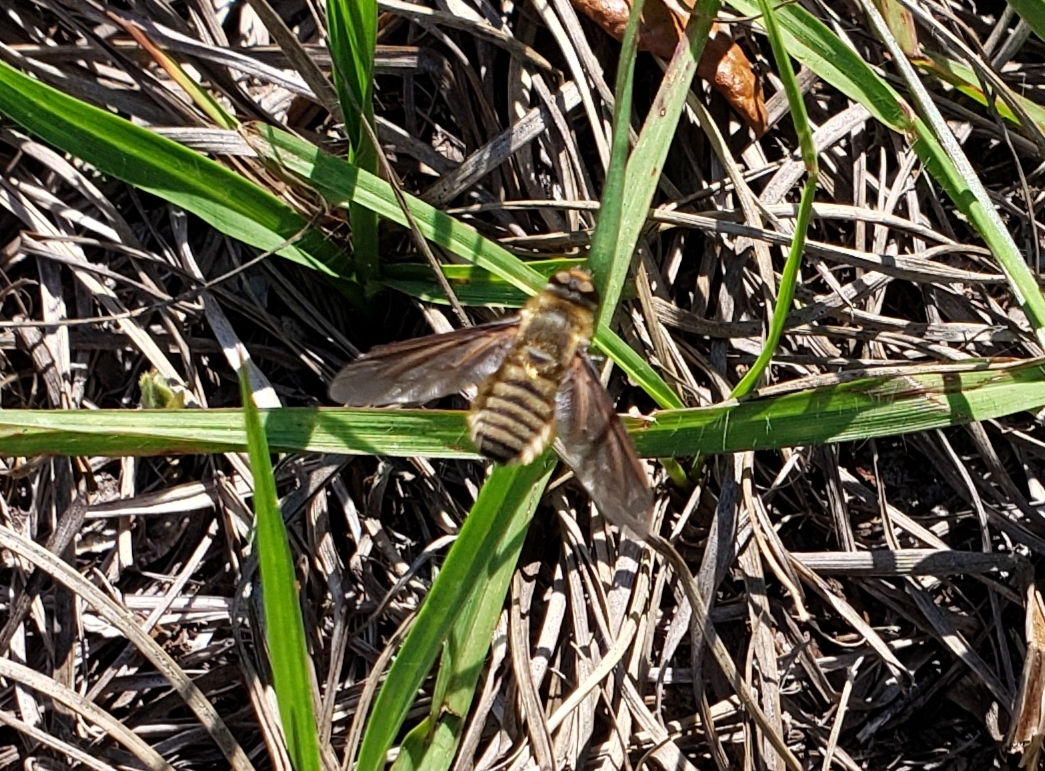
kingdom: Animalia
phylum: Arthropoda
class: Insecta
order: Diptera
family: Bombyliidae
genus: Poecilanthrax
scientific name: Poecilanthrax lucifer
